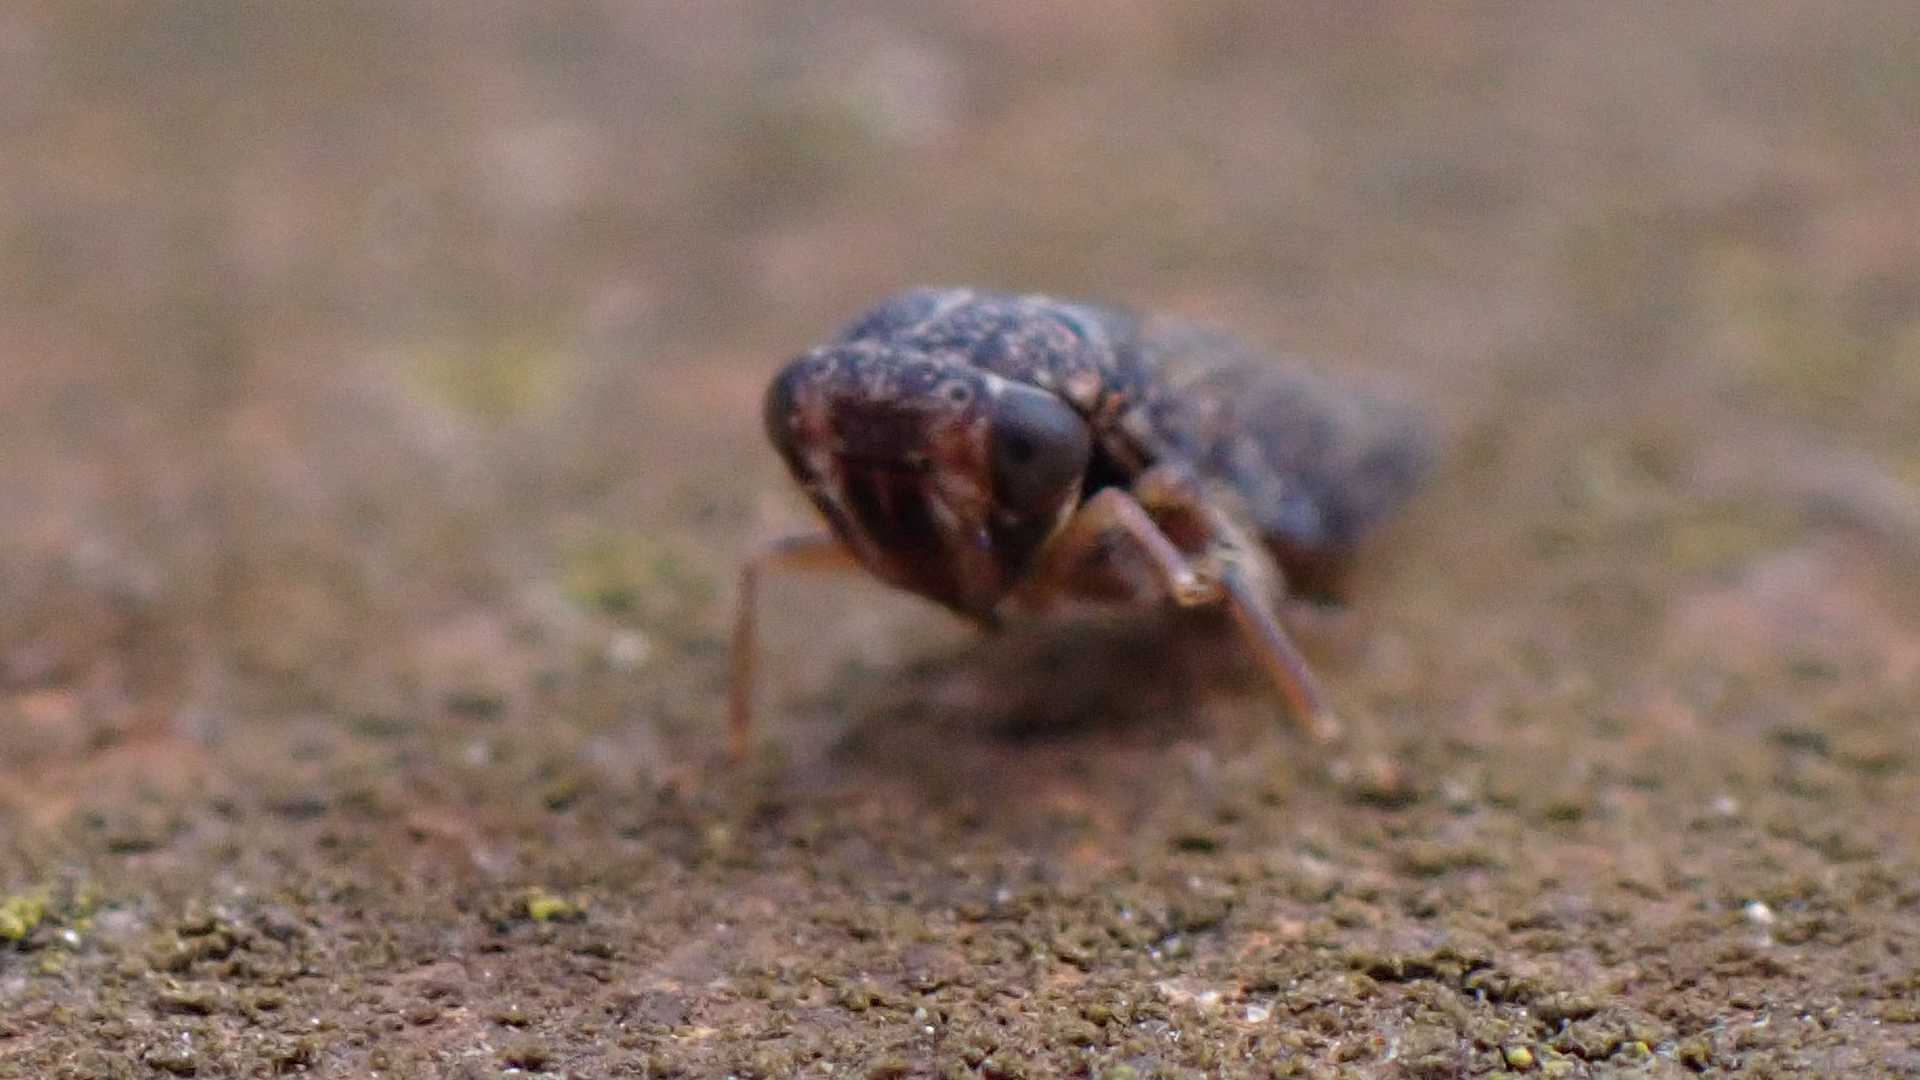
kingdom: Animalia
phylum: Arthropoda
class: Insecta
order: Hemiptera
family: Cicadellidae
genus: Acericerus
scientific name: Acericerus ribauti
